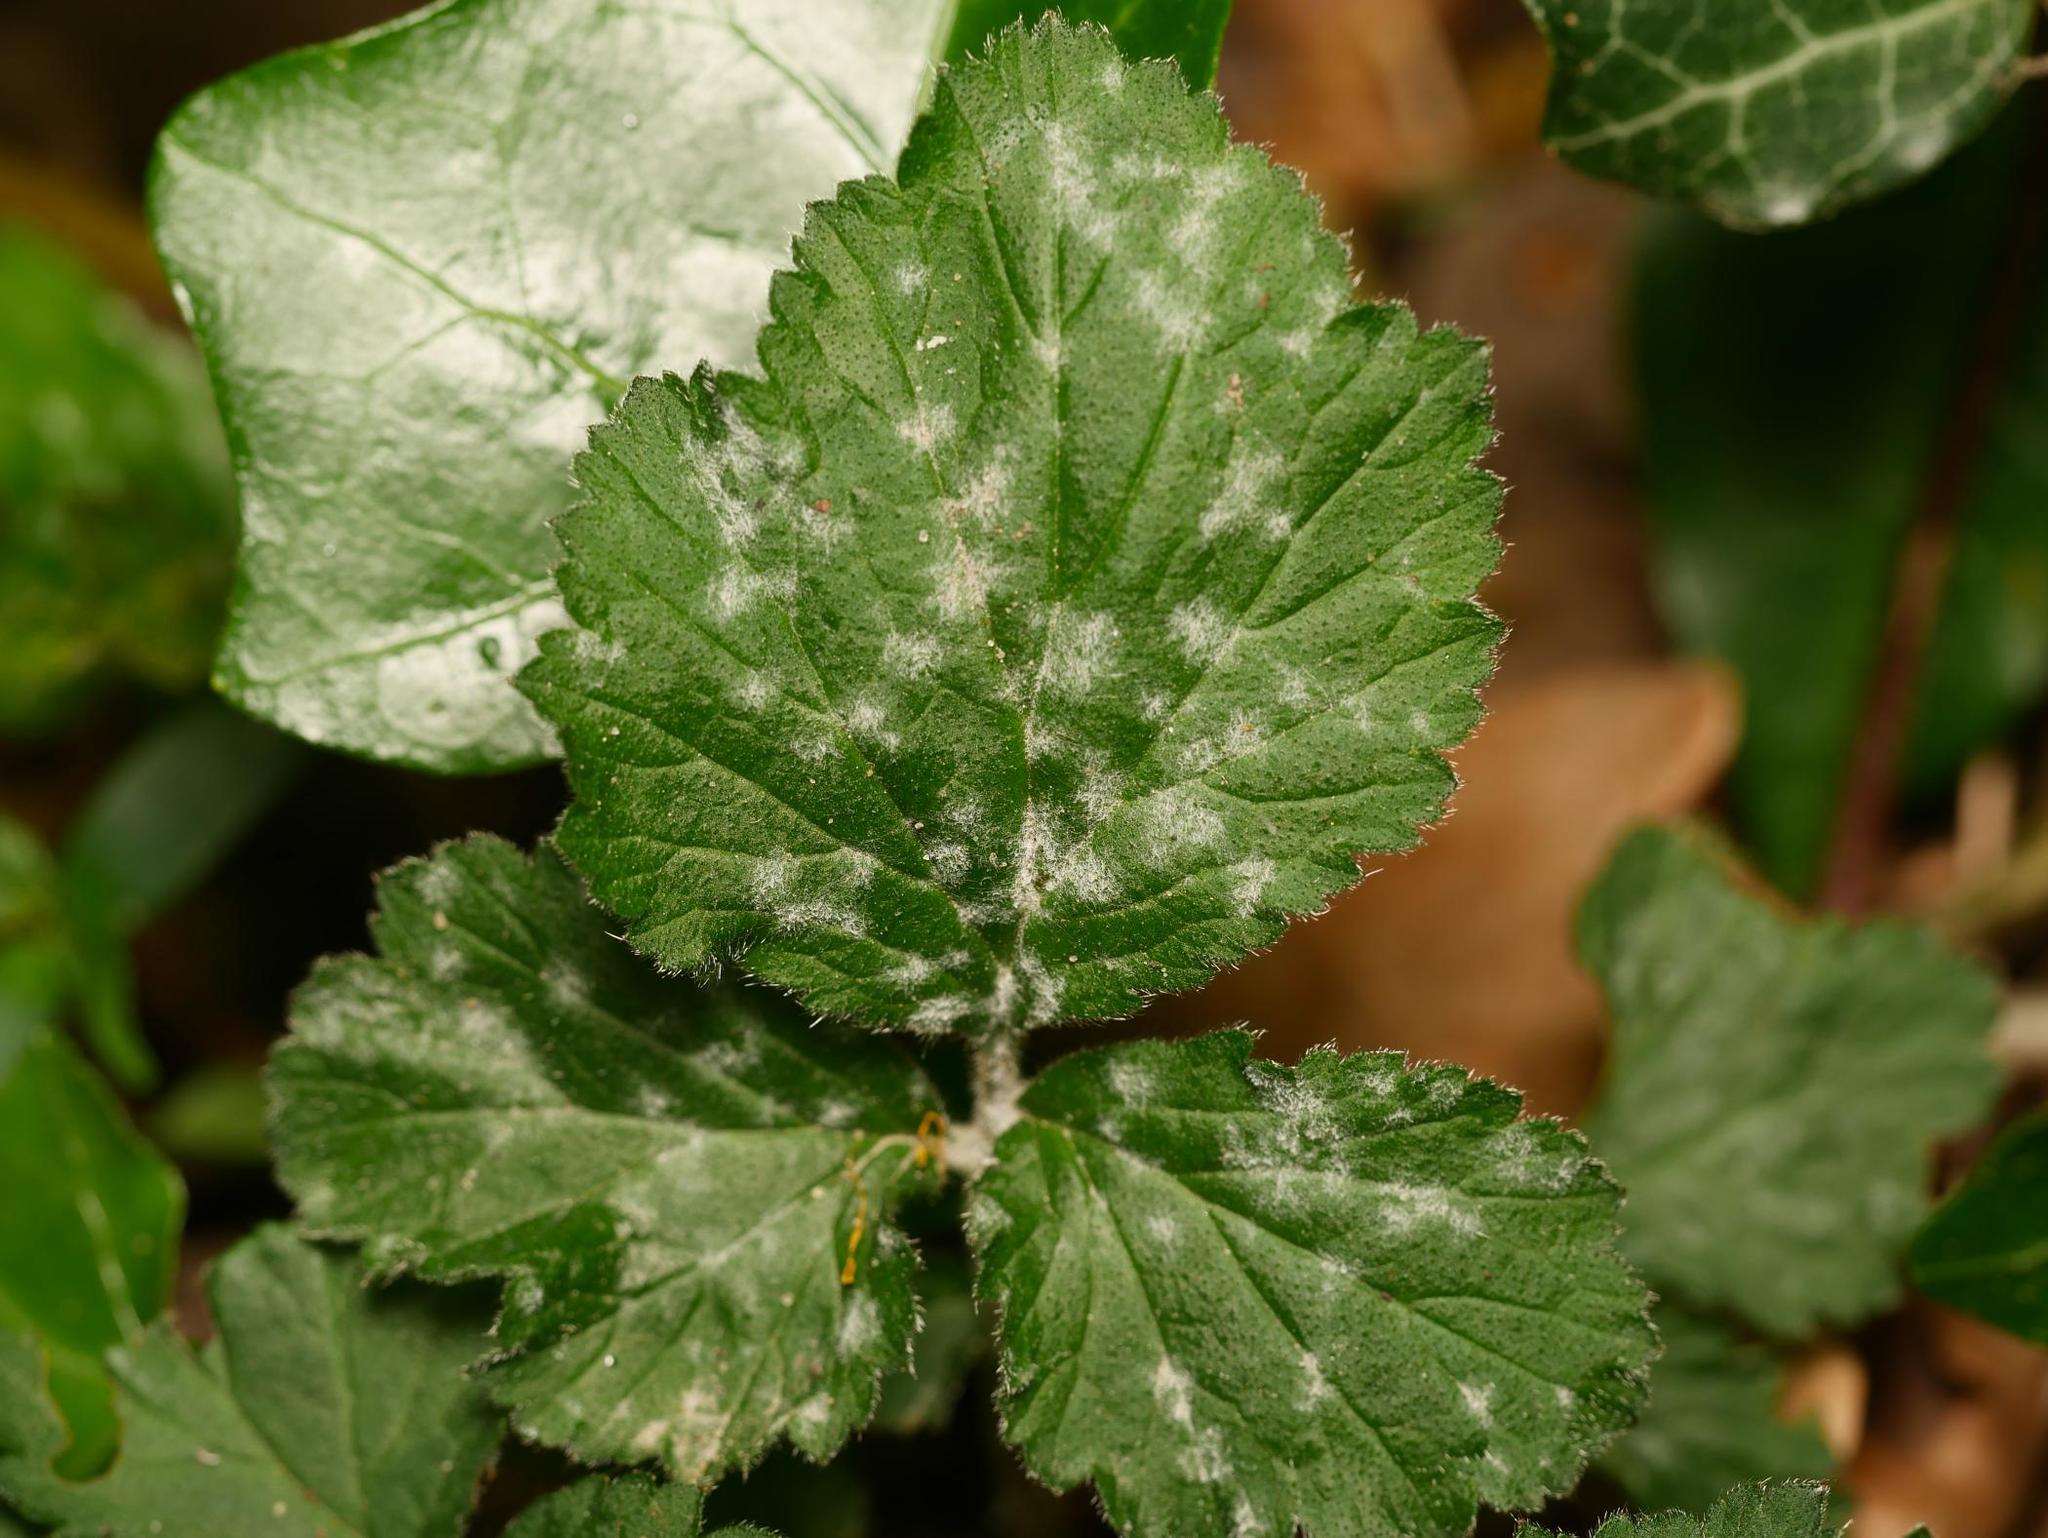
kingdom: Fungi
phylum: Ascomycota
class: Leotiomycetes
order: Helotiales
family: Erysiphaceae
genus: Podosphaera
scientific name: Podosphaera aphanis
